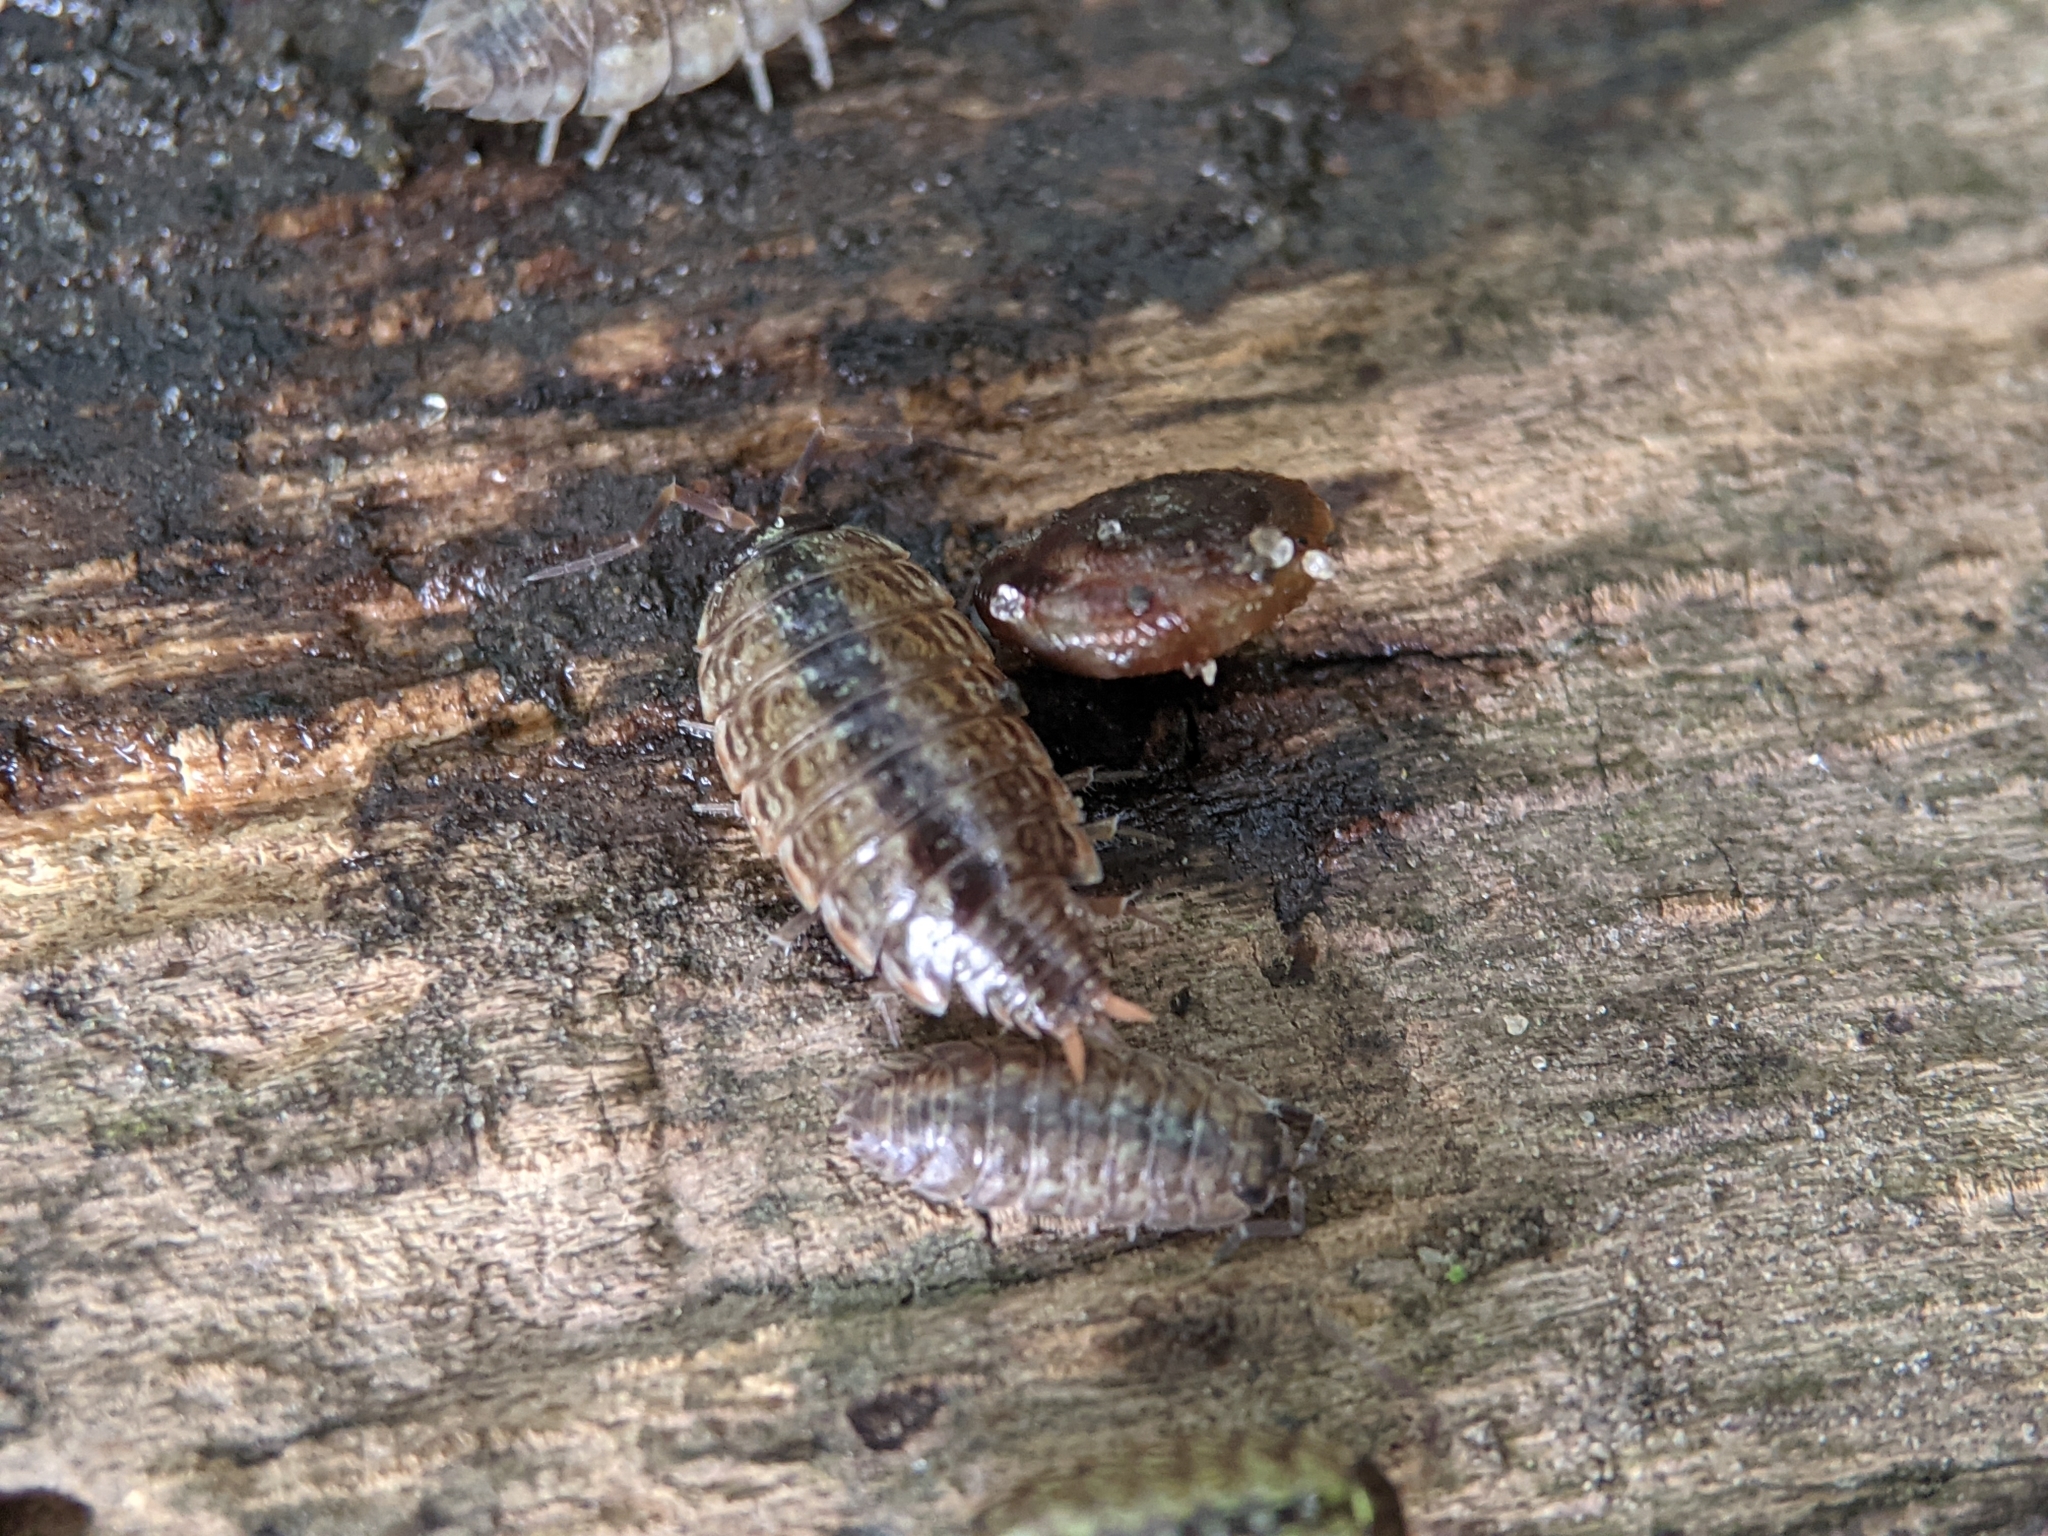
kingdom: Animalia
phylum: Arthropoda
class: Malacostraca
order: Isopoda
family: Philosciidae
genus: Philoscia
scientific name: Philoscia muscorum
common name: Common striped woodlouse
